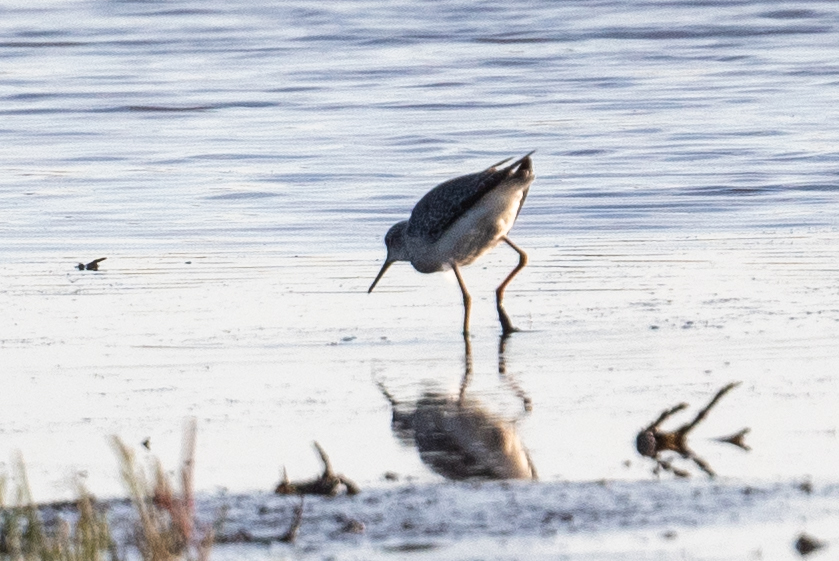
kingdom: Animalia
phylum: Chordata
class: Aves
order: Charadriiformes
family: Scolopacidae
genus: Tringa
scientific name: Tringa melanoleuca
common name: Greater yellowlegs
